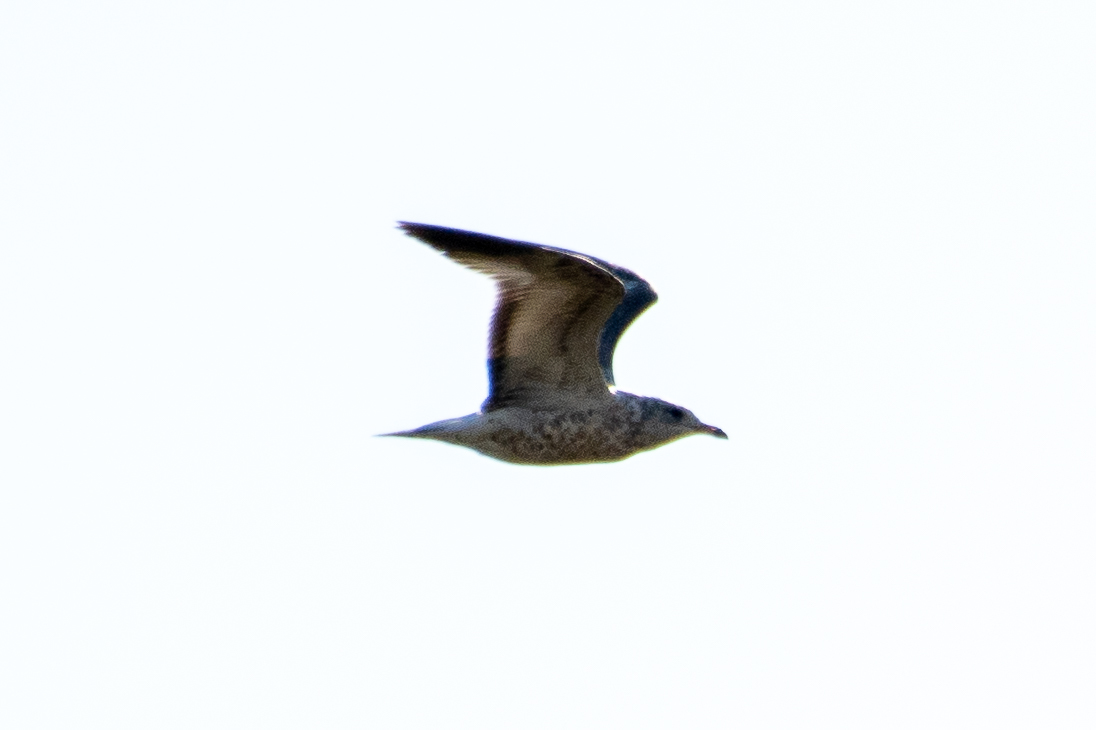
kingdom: Animalia
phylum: Chordata
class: Aves
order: Charadriiformes
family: Laridae
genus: Larus
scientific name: Larus delawarensis
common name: Ring-billed gull
